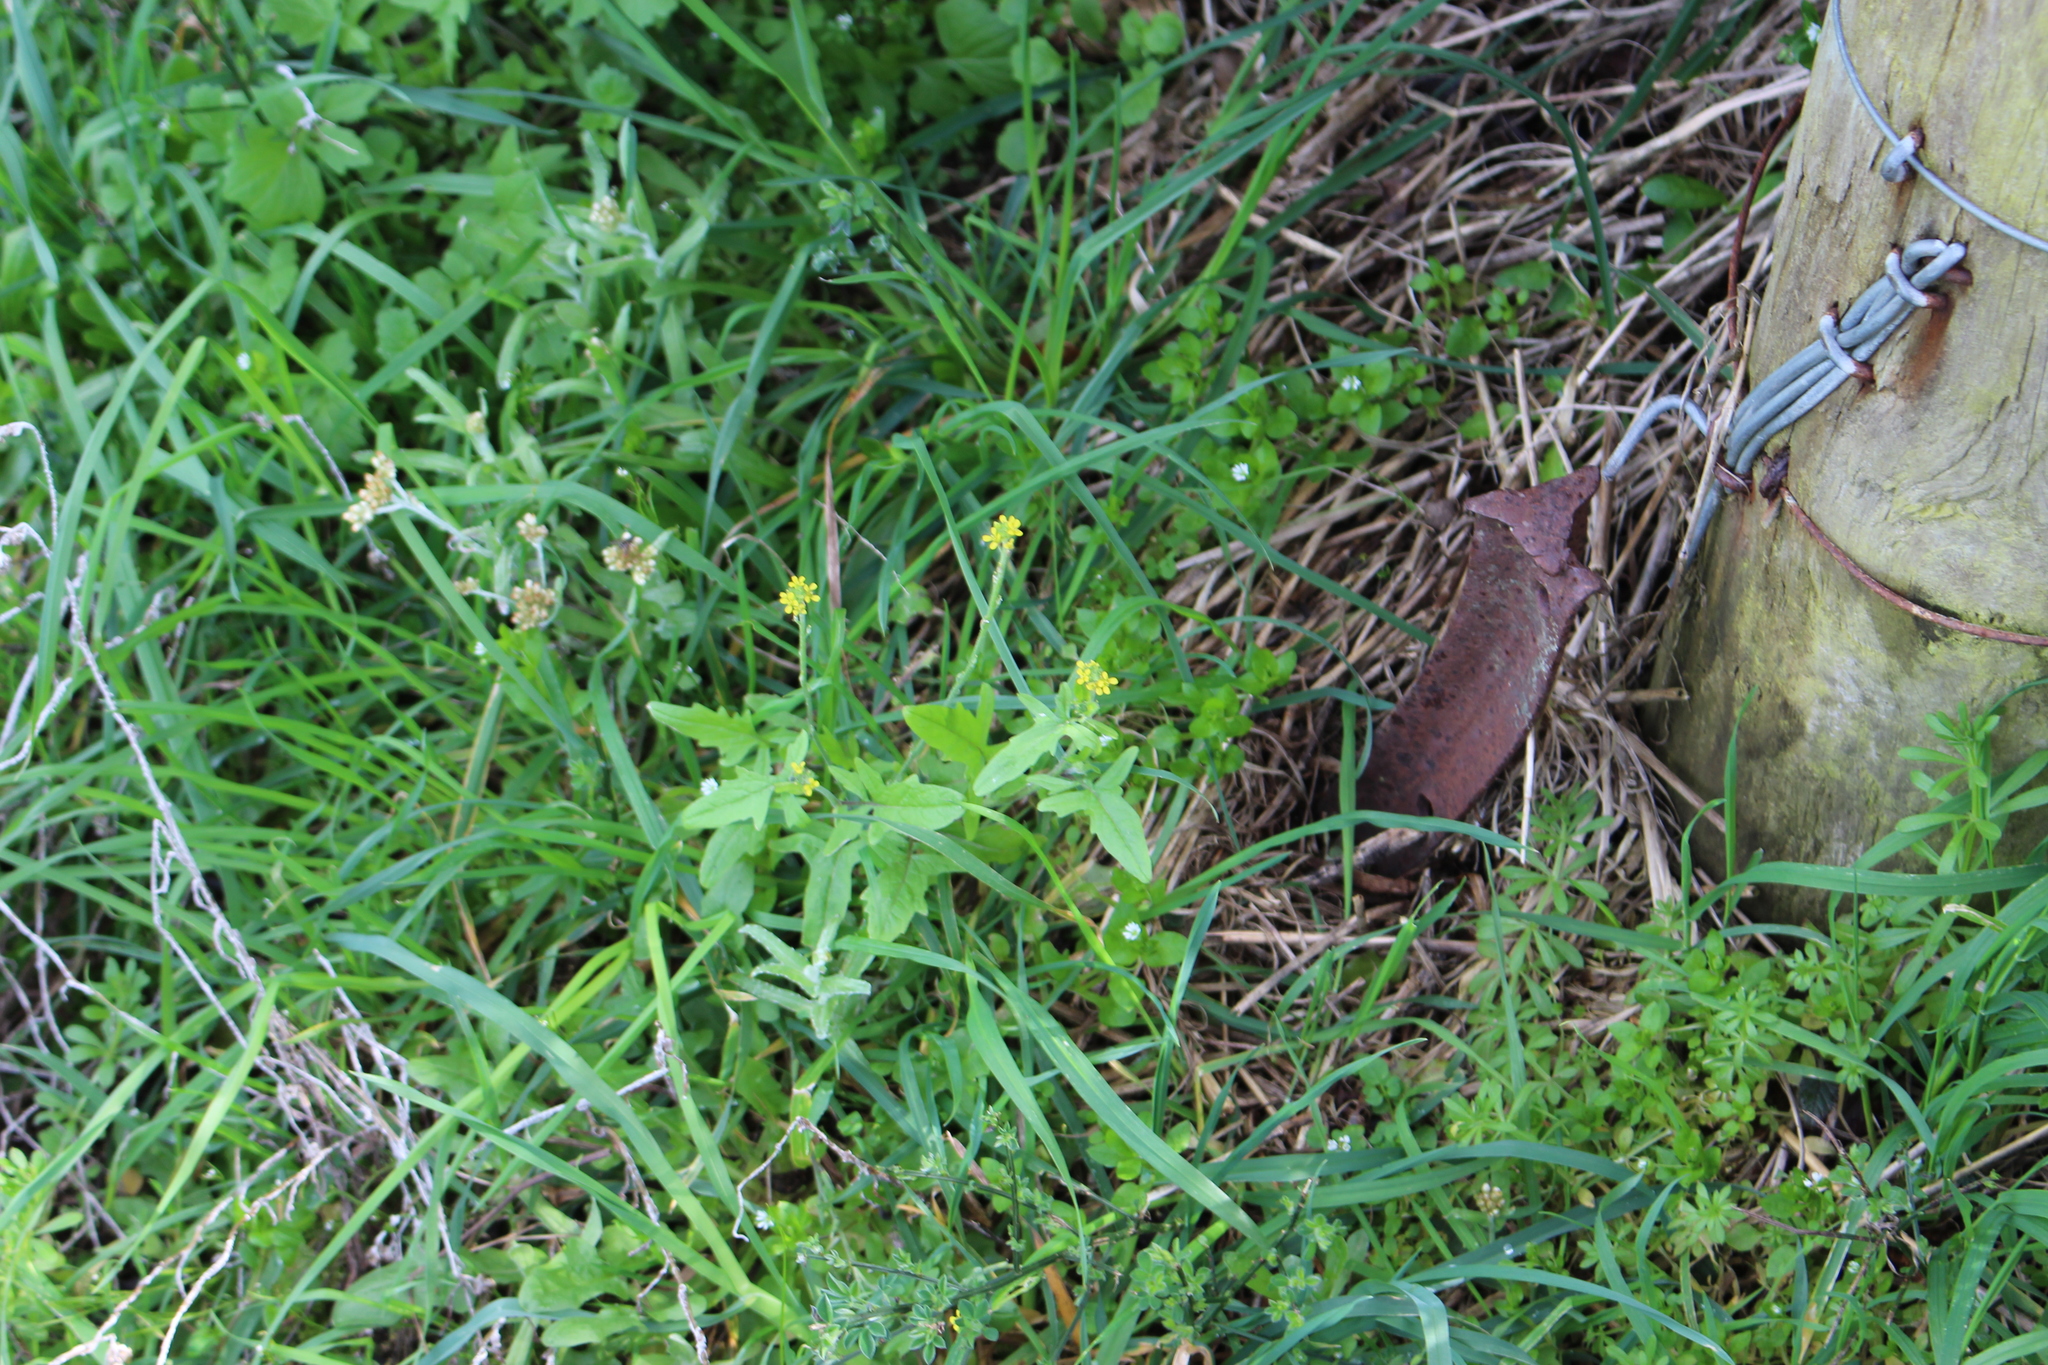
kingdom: Plantae
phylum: Tracheophyta
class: Magnoliopsida
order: Brassicales
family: Brassicaceae
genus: Sisymbrium
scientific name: Sisymbrium officinale
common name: Hedge mustard
